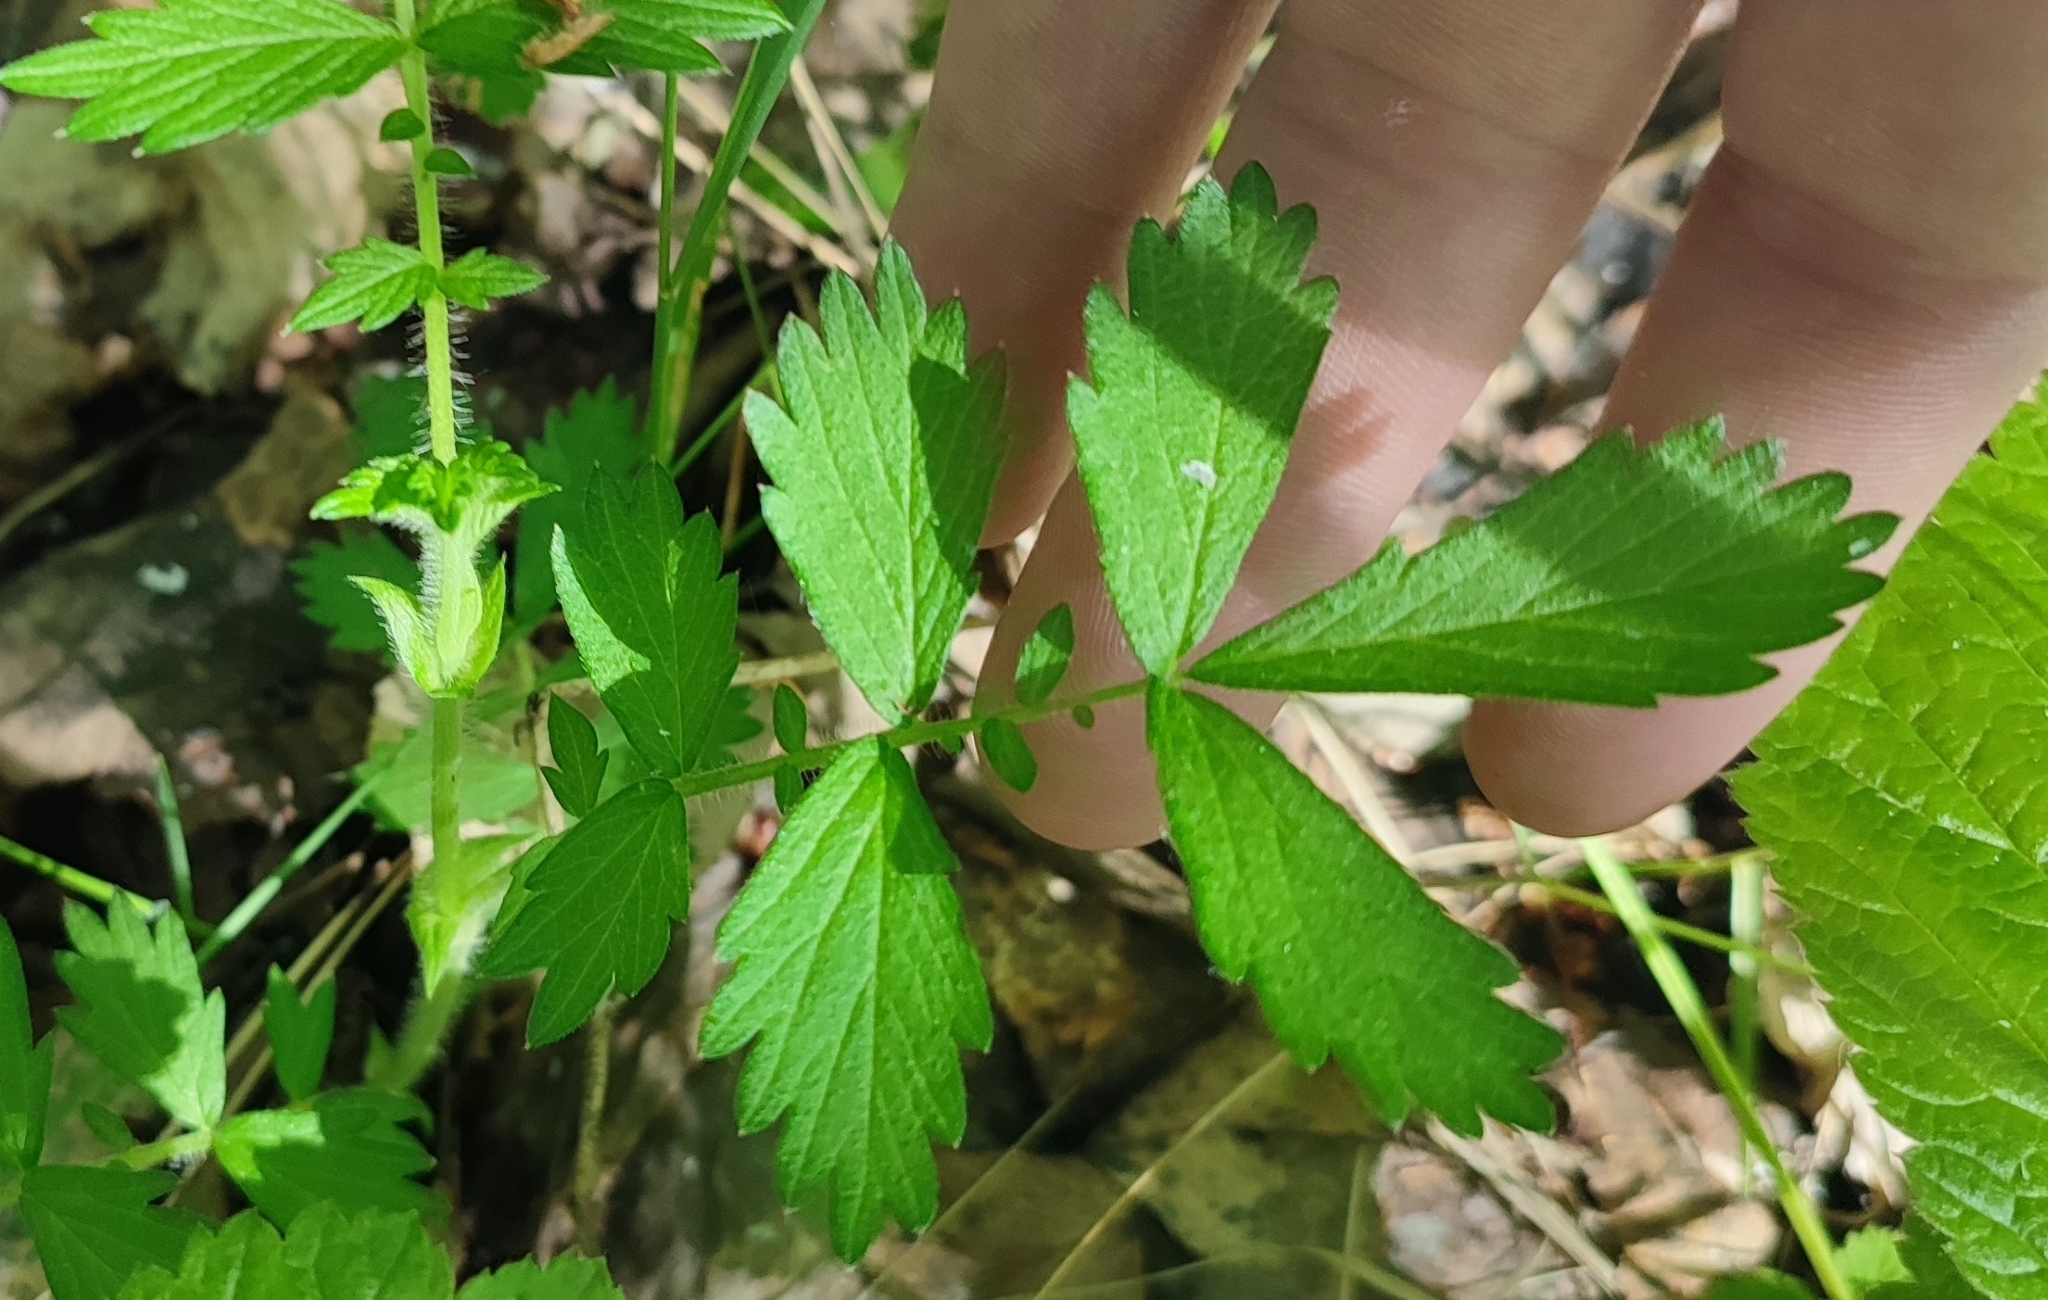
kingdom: Plantae
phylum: Tracheophyta
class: Magnoliopsida
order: Rosales
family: Rosaceae
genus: Agrimonia
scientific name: Agrimonia pilosa
